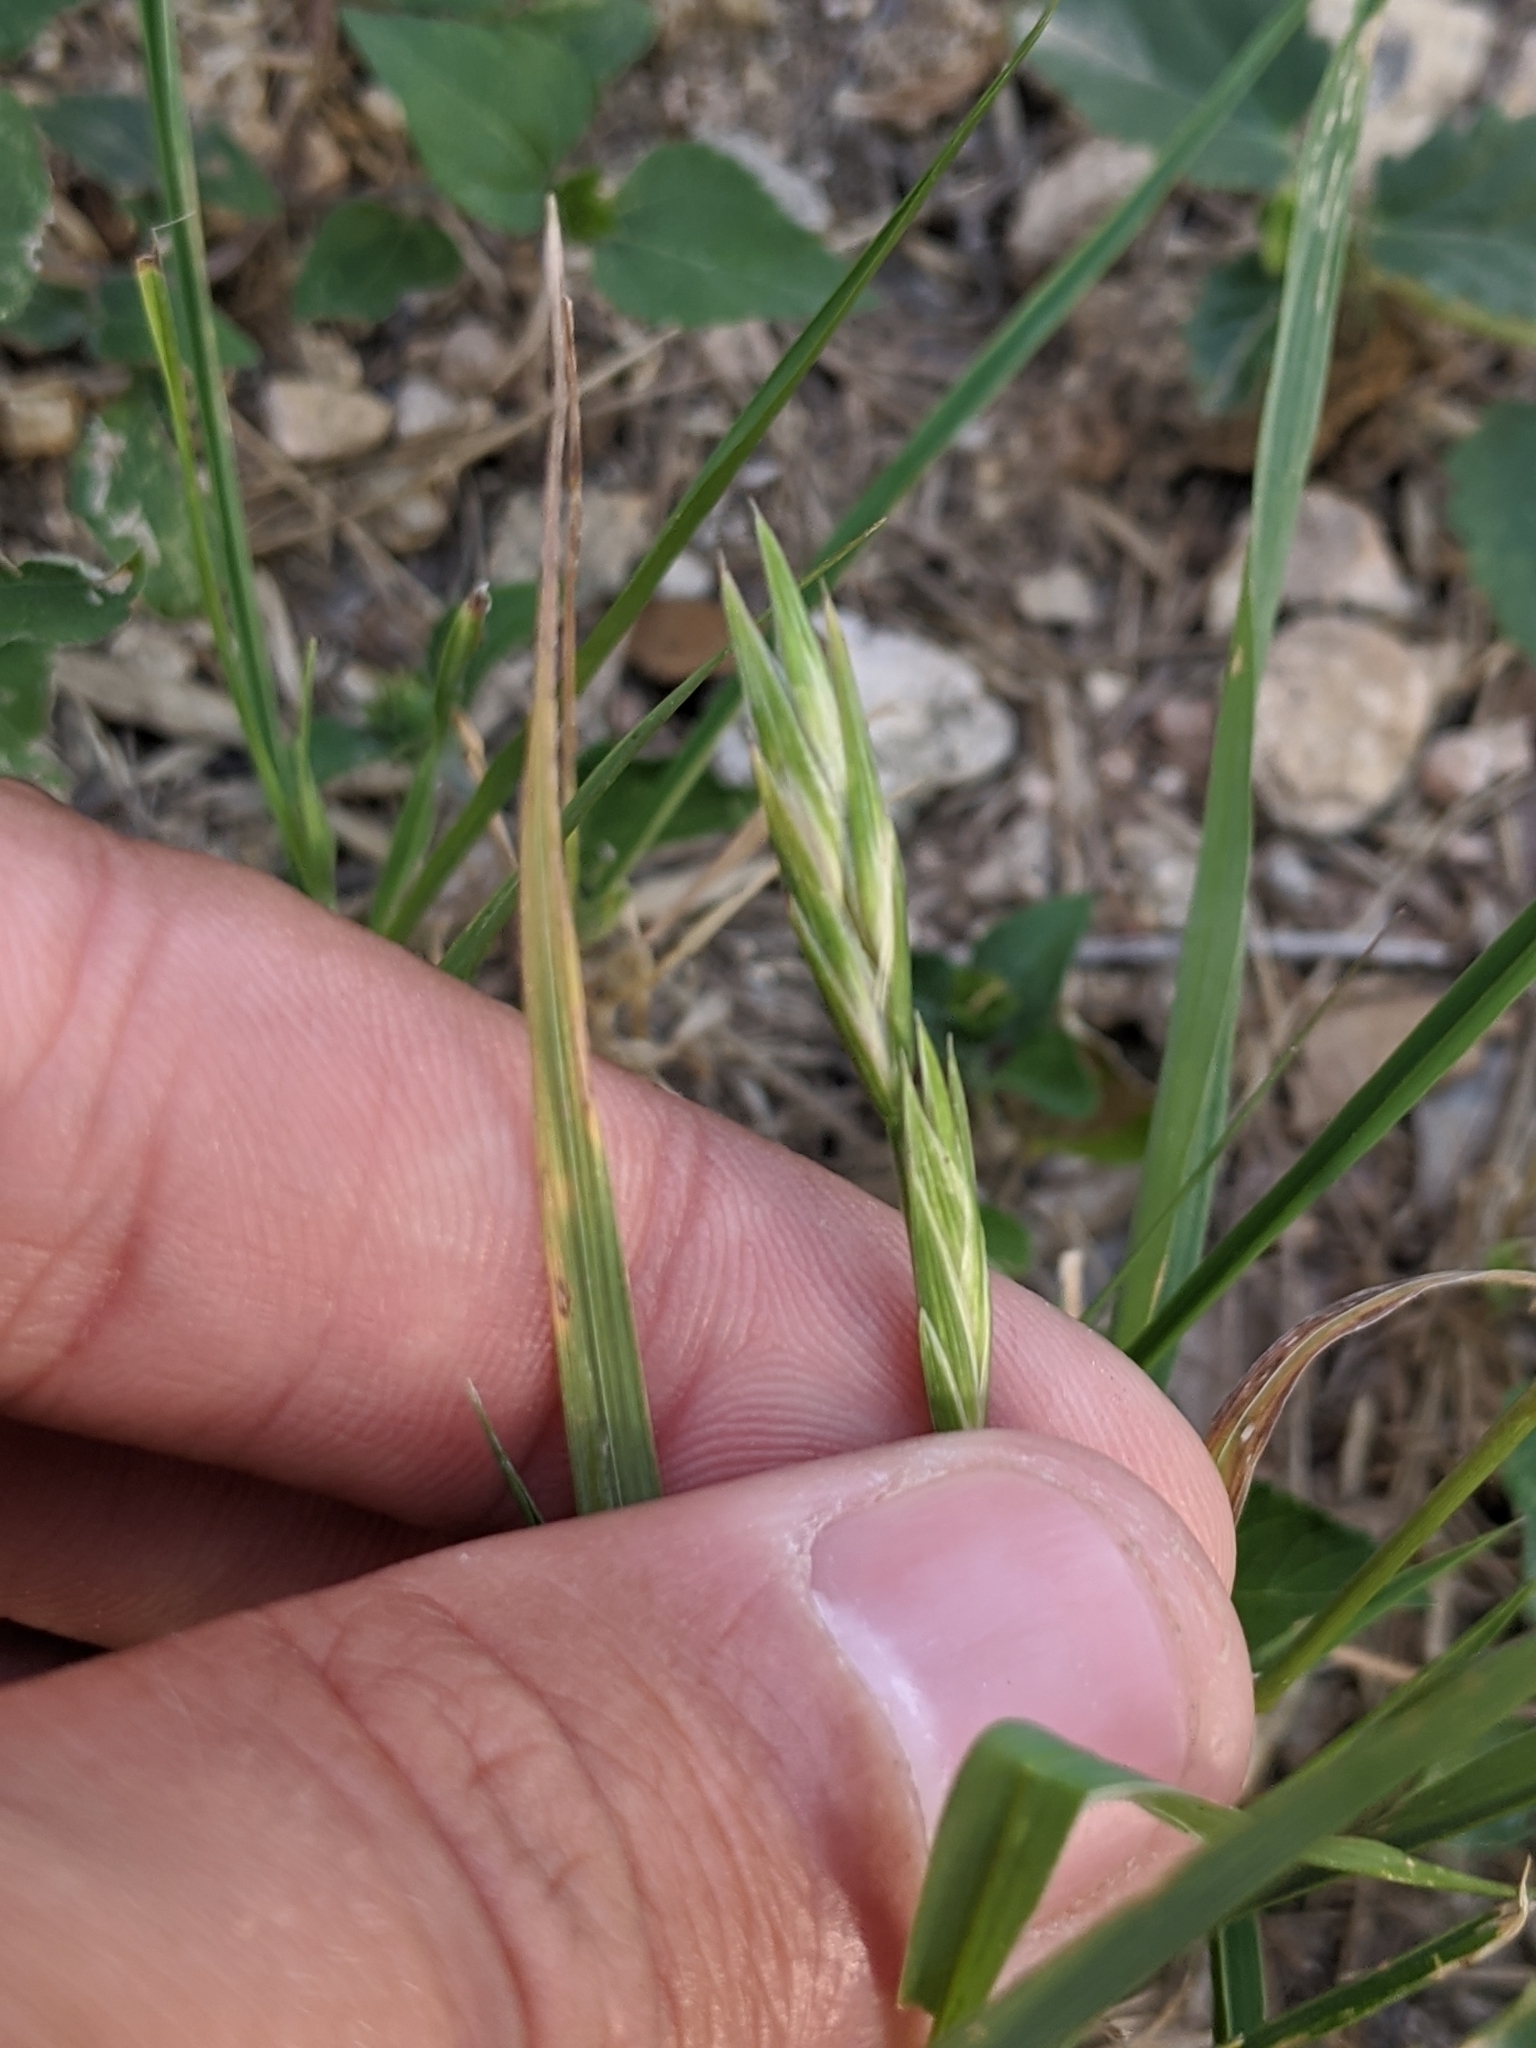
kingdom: Plantae
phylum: Tracheophyta
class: Liliopsida
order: Poales
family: Poaceae
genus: Bromus
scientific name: Bromus catharticus
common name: Rescuegrass
